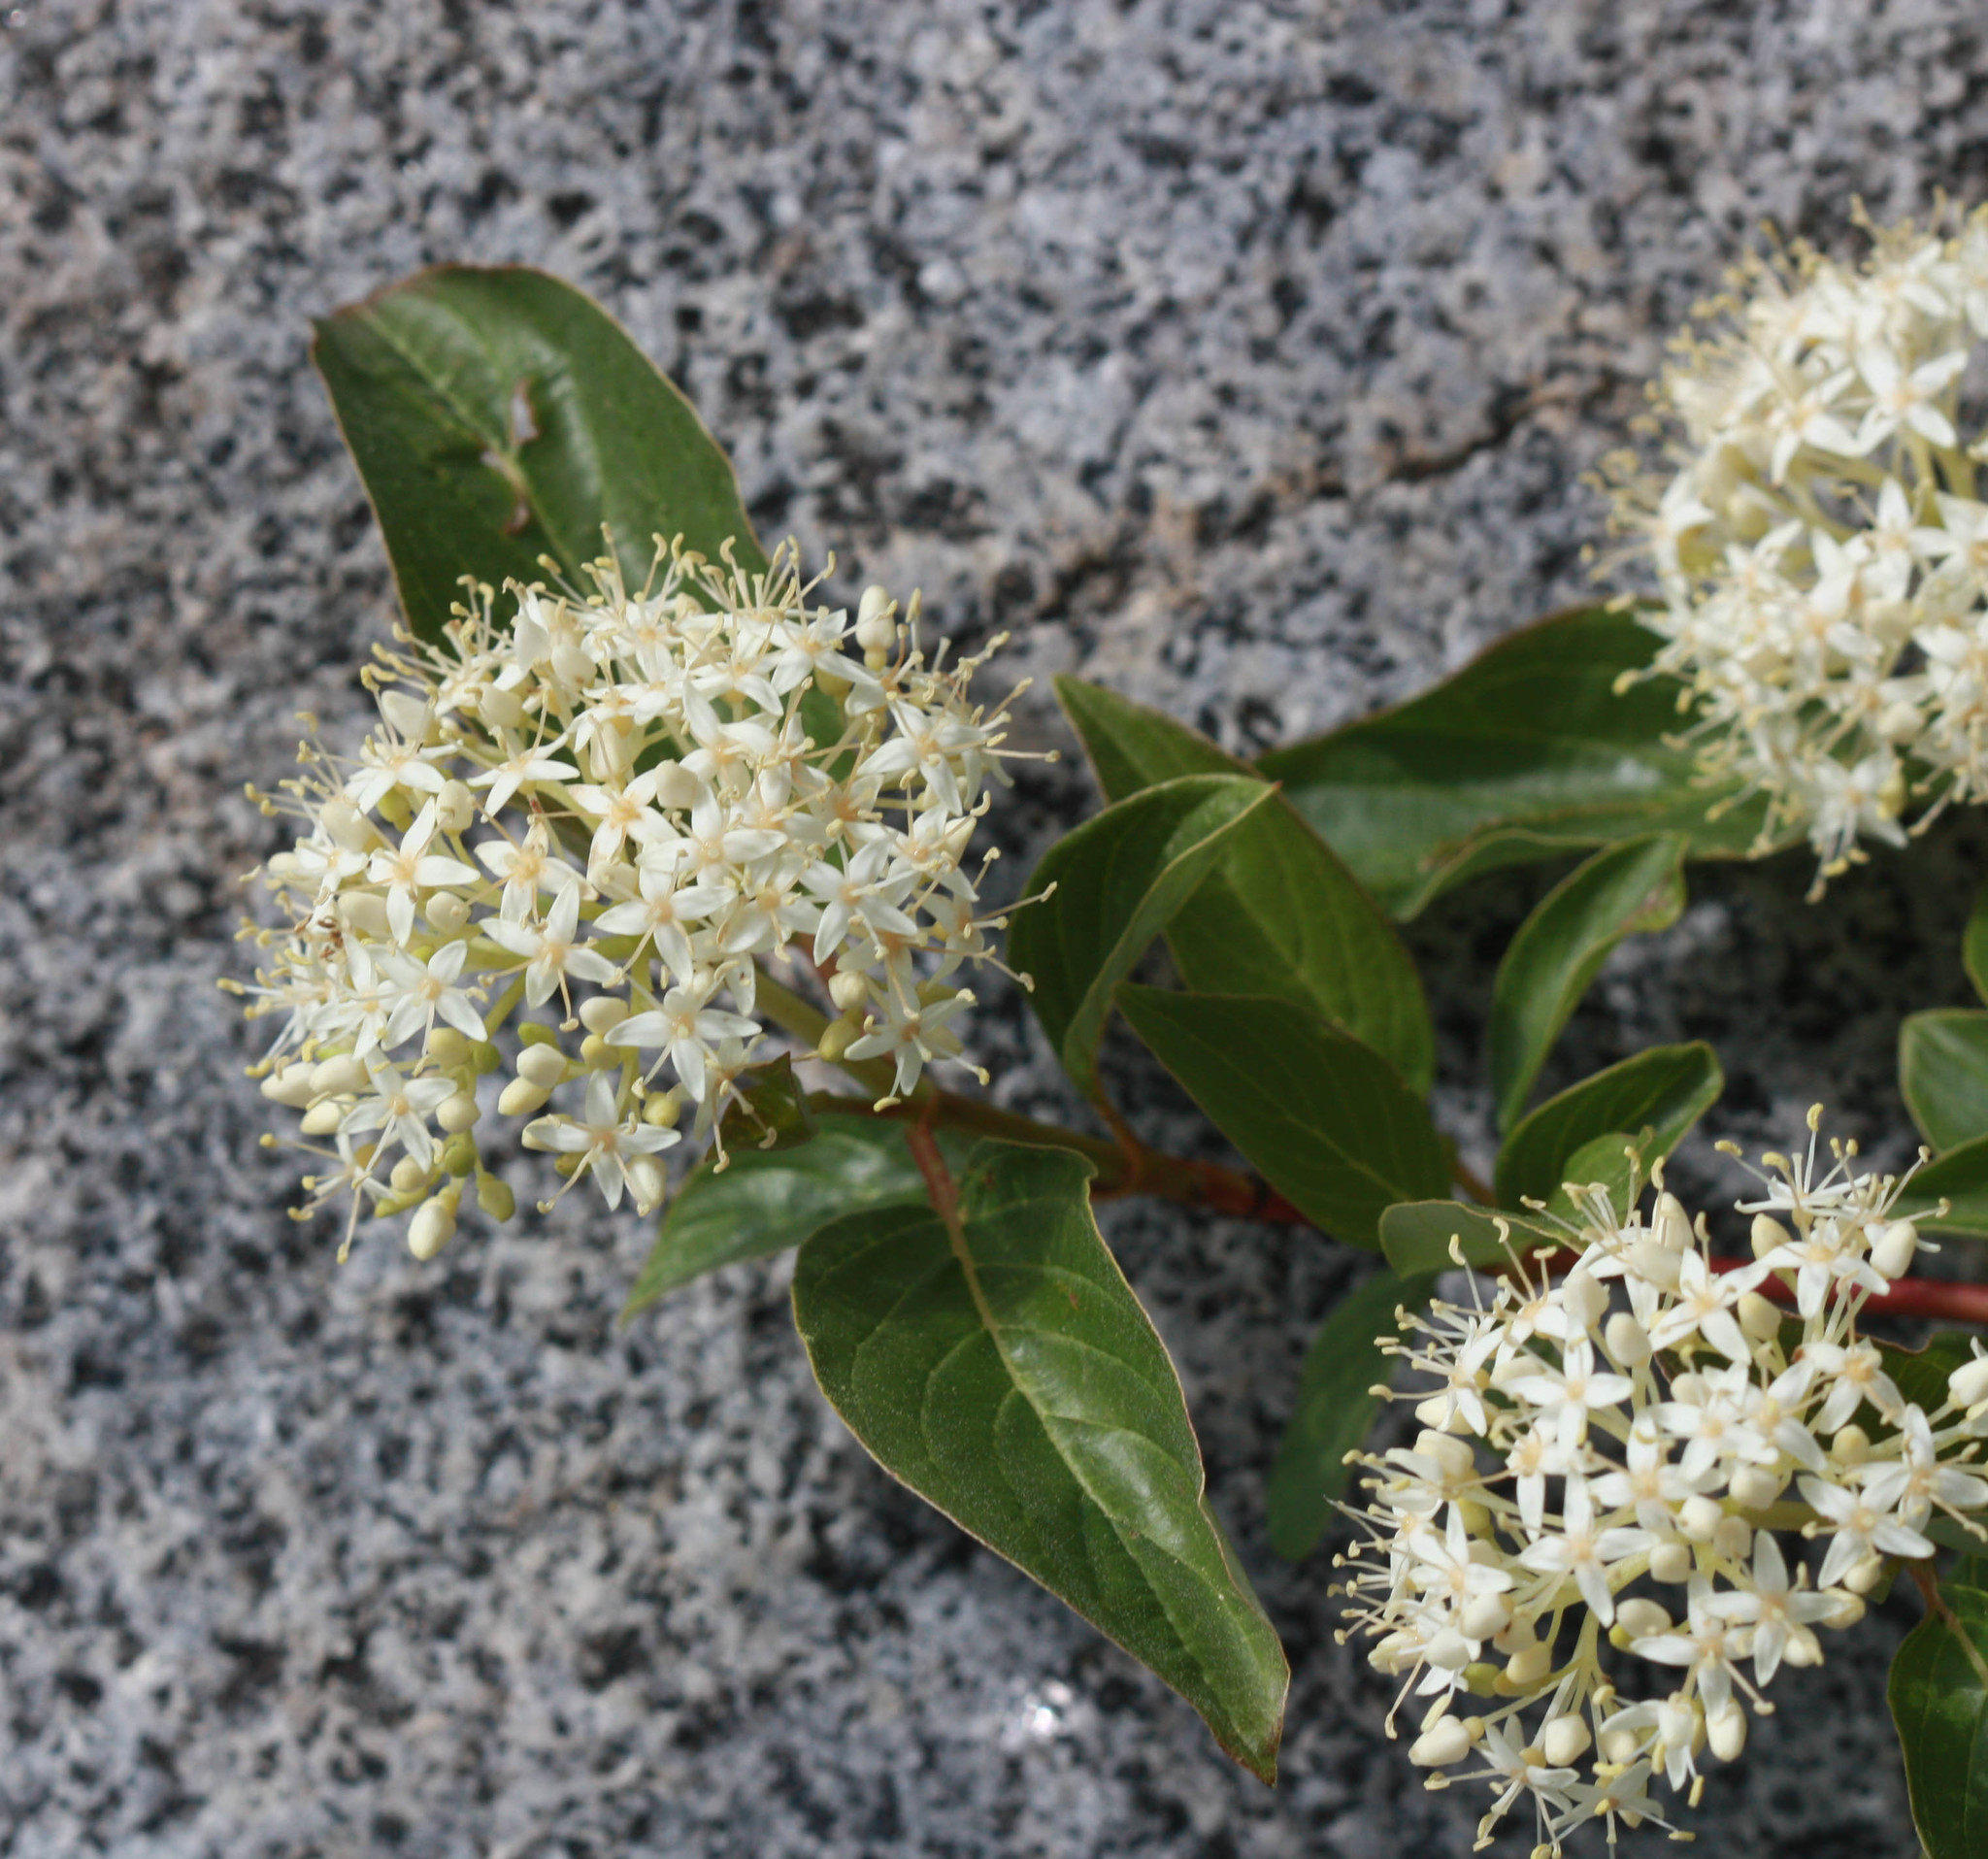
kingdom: Plantae
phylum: Tracheophyta
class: Magnoliopsida
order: Cornales
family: Cornaceae
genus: Cornus
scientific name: Cornus sericea
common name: Red-osier dogwood
